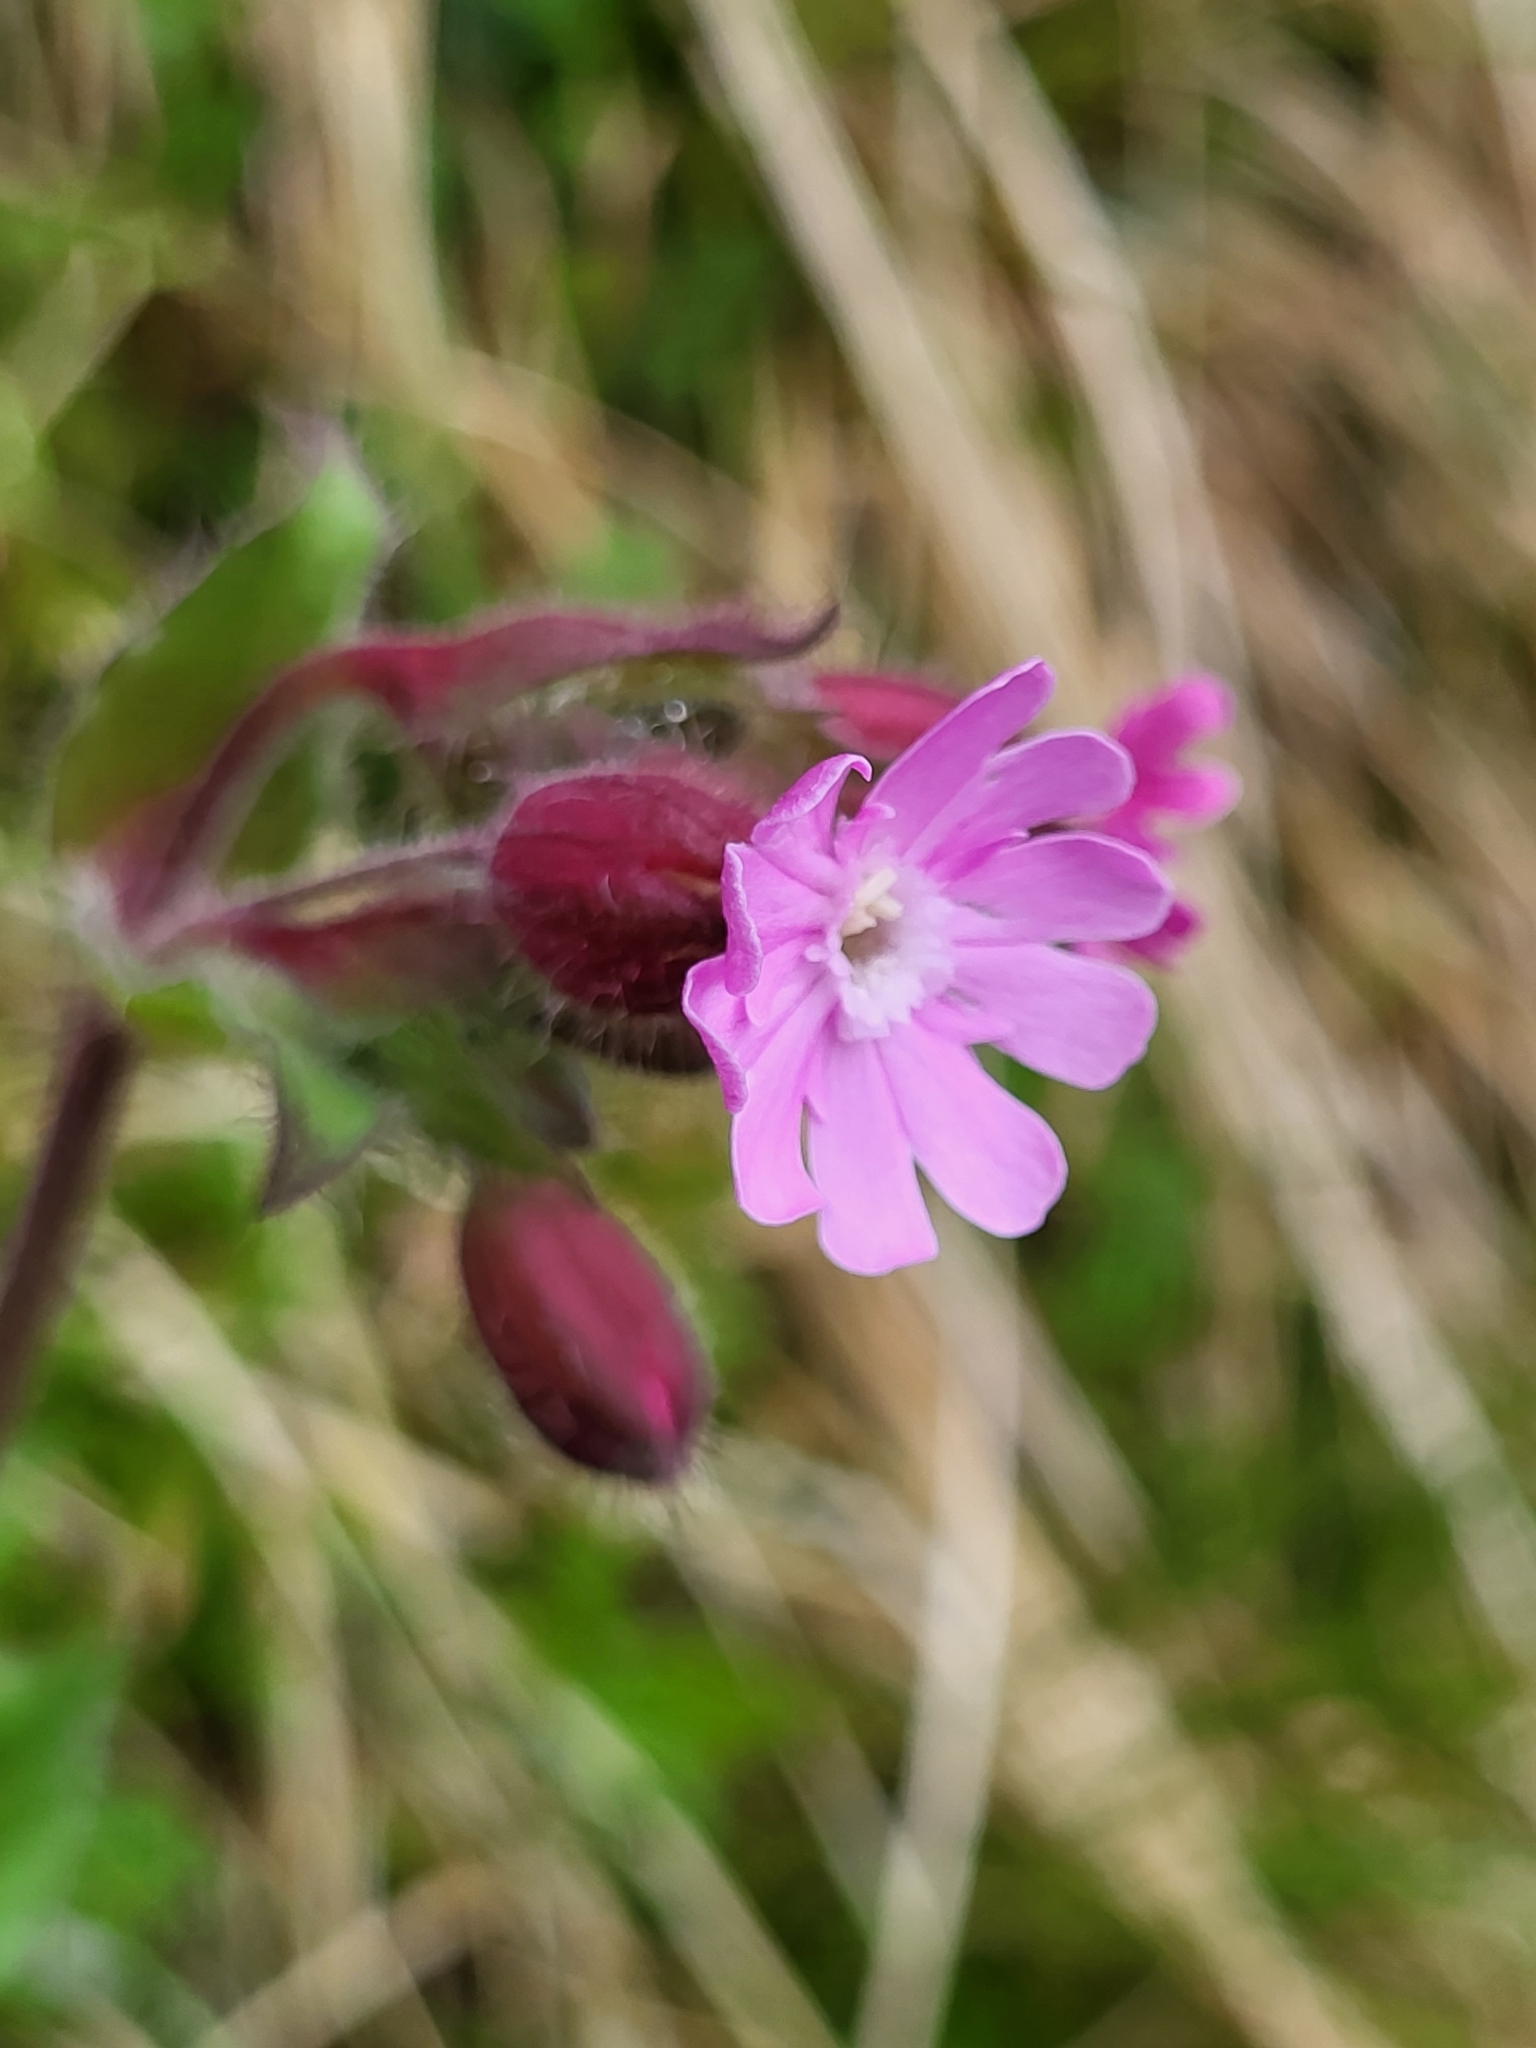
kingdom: Plantae
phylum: Tracheophyta
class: Magnoliopsida
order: Caryophyllales
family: Caryophyllaceae
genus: Silene
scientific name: Silene dioica
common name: Red campion
